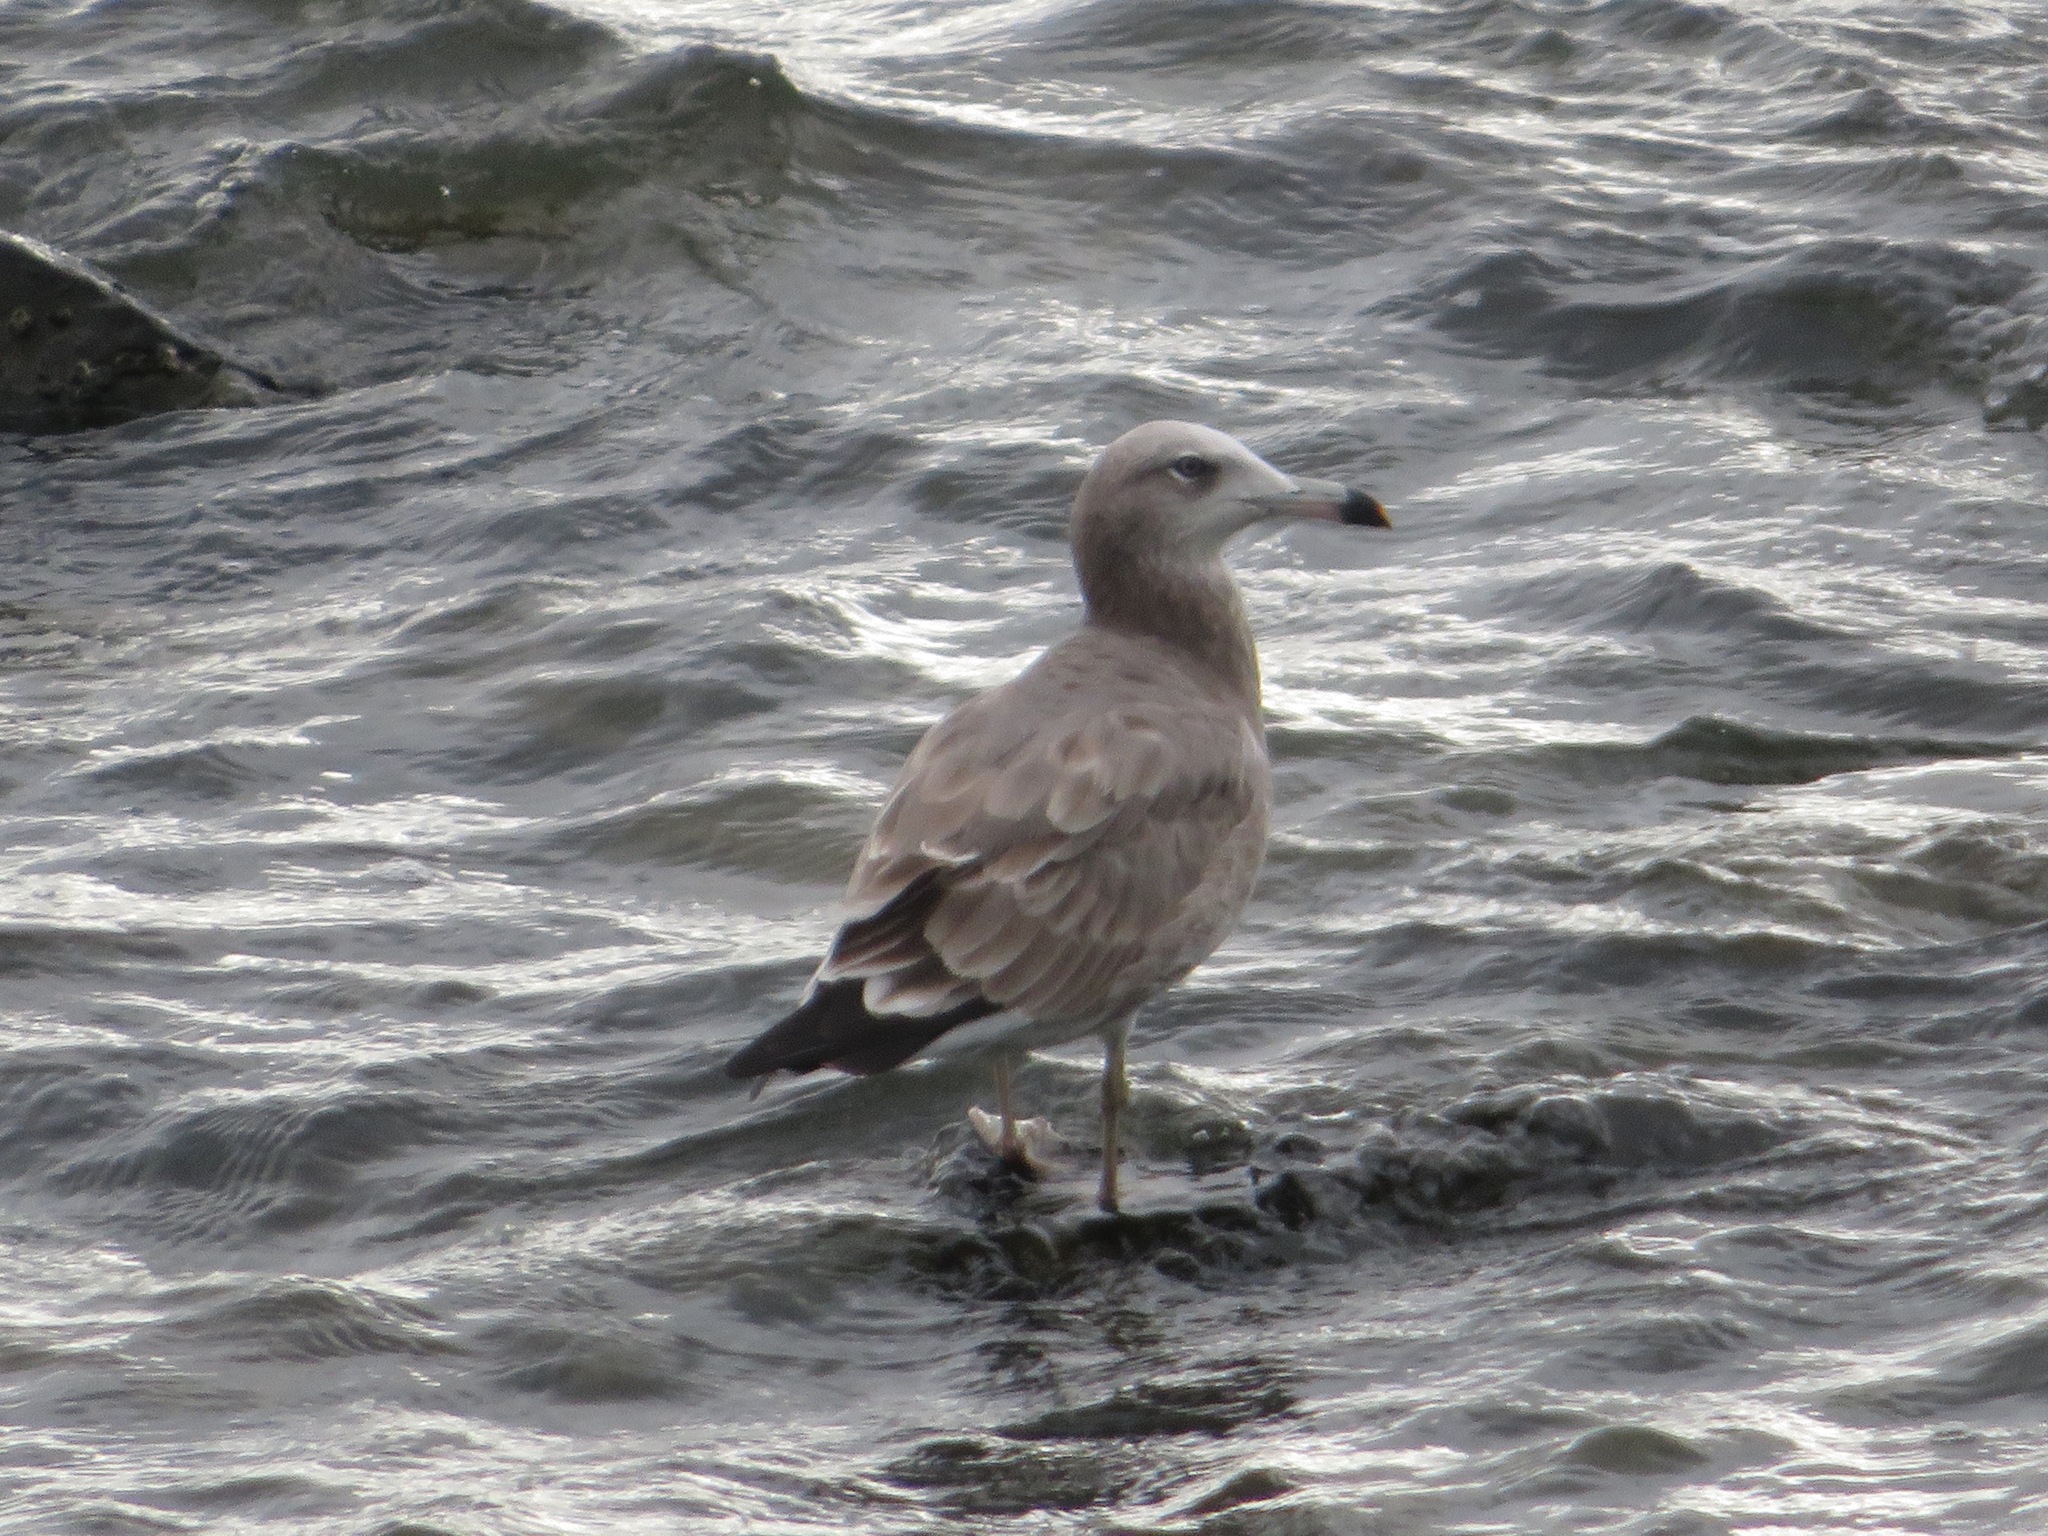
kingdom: Animalia
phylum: Chordata
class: Aves
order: Charadriiformes
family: Laridae
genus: Larus
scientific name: Larus crassirostris
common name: Black-tailed gull
